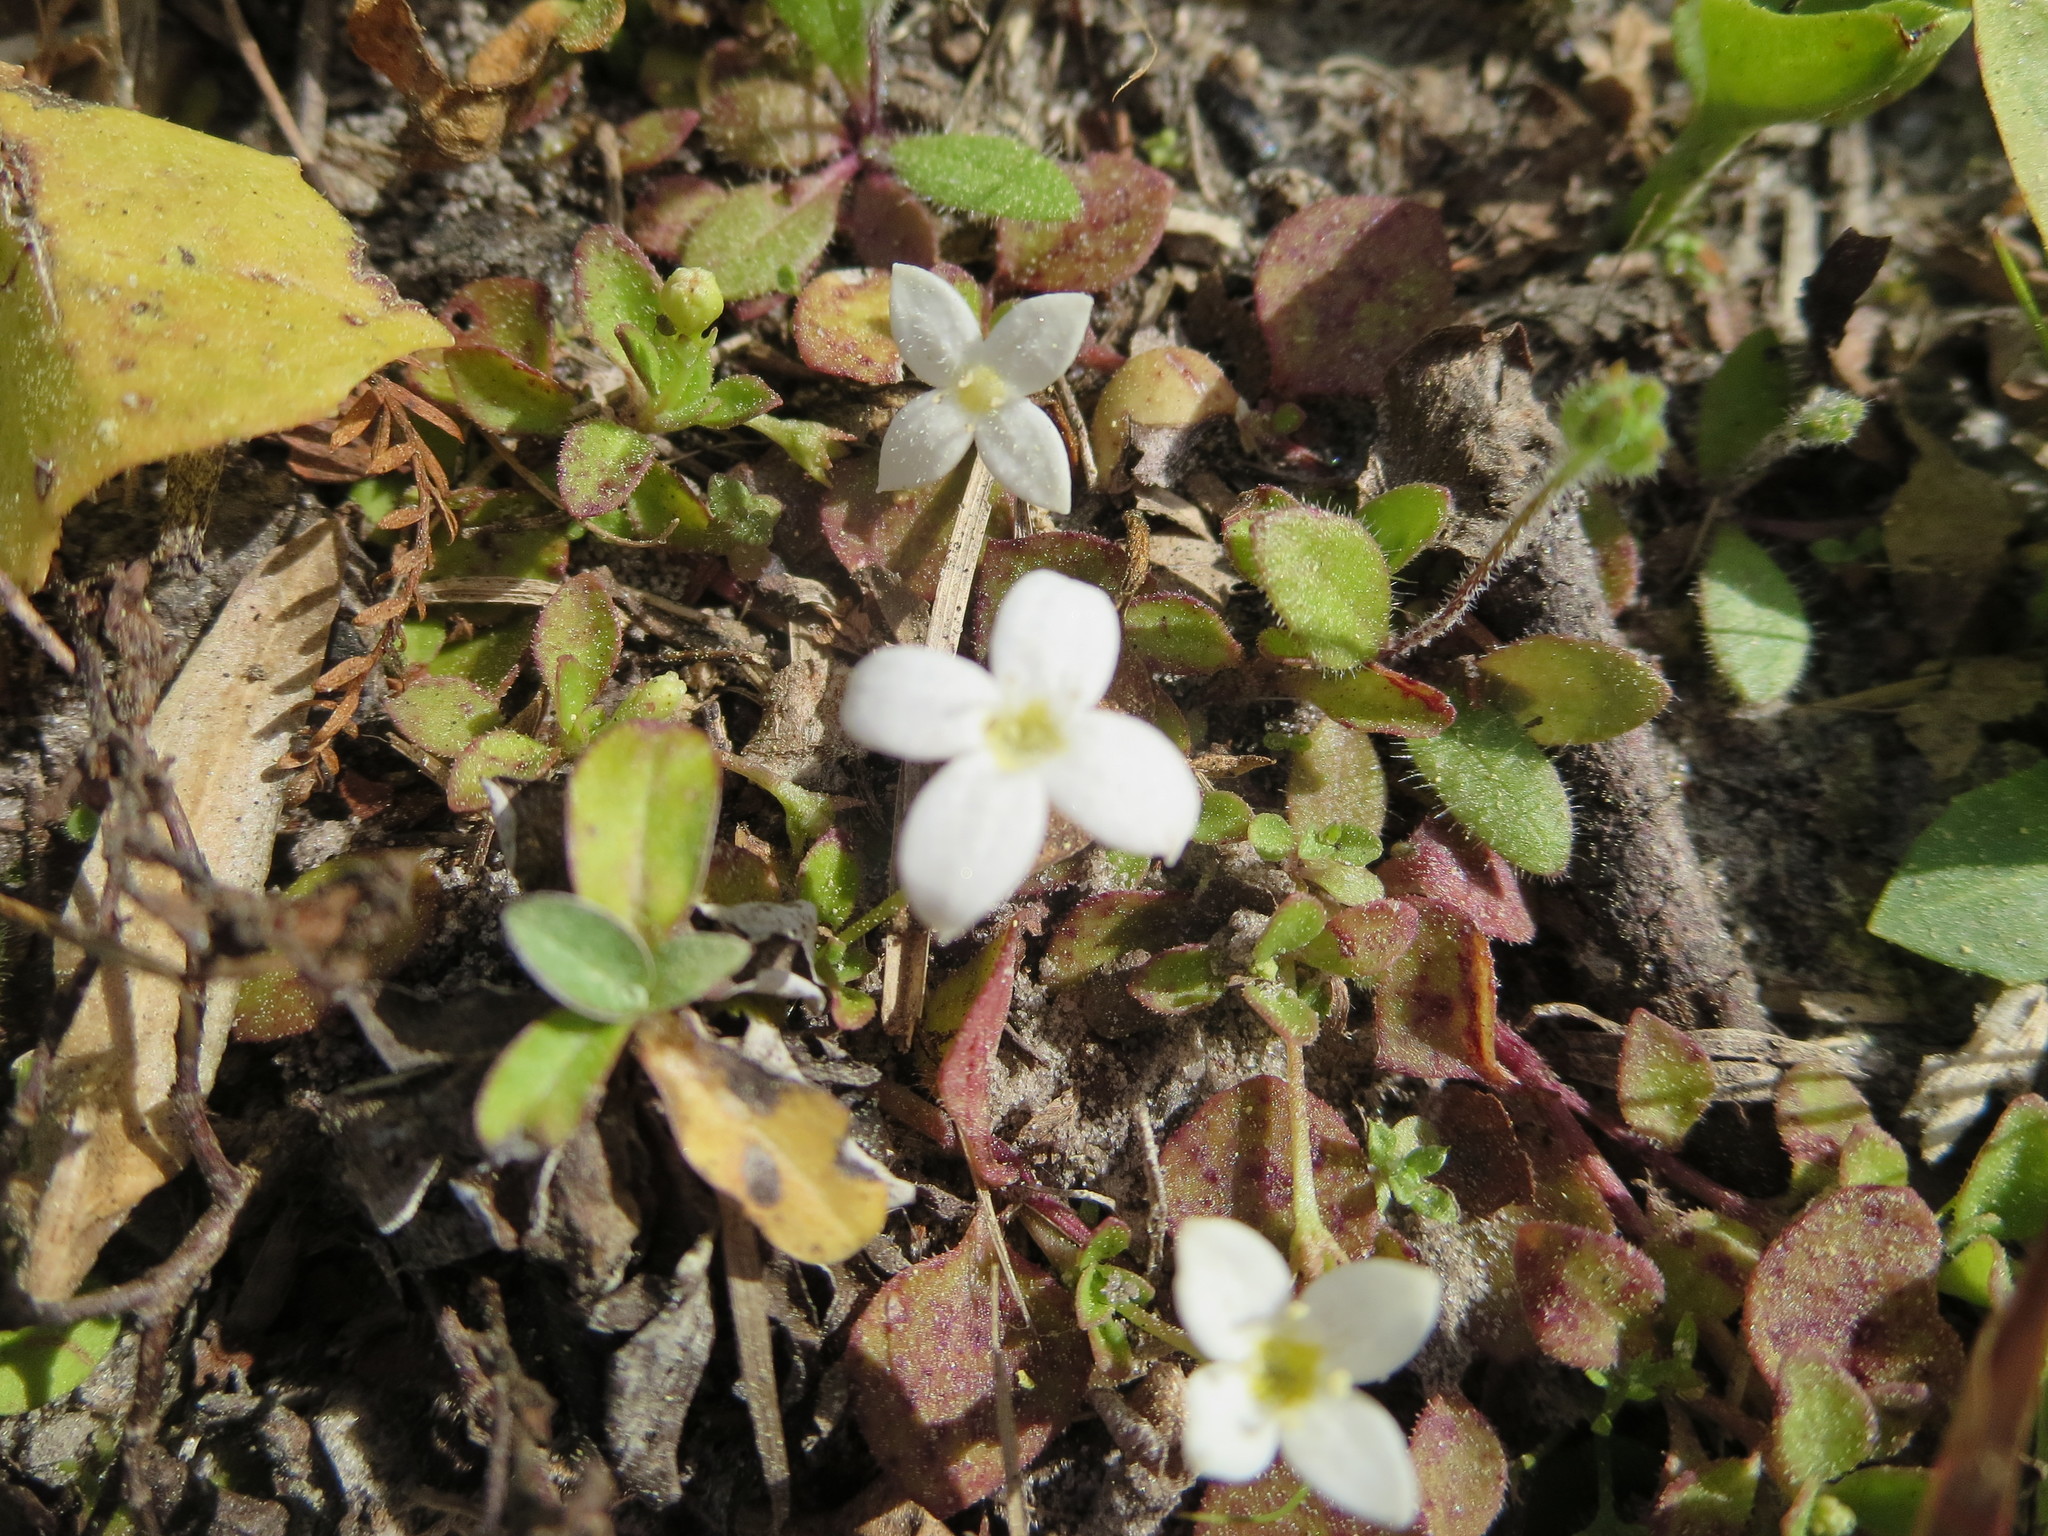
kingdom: Plantae
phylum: Tracheophyta
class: Magnoliopsida
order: Gentianales
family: Rubiaceae
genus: Houstonia
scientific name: Houstonia procumbens
